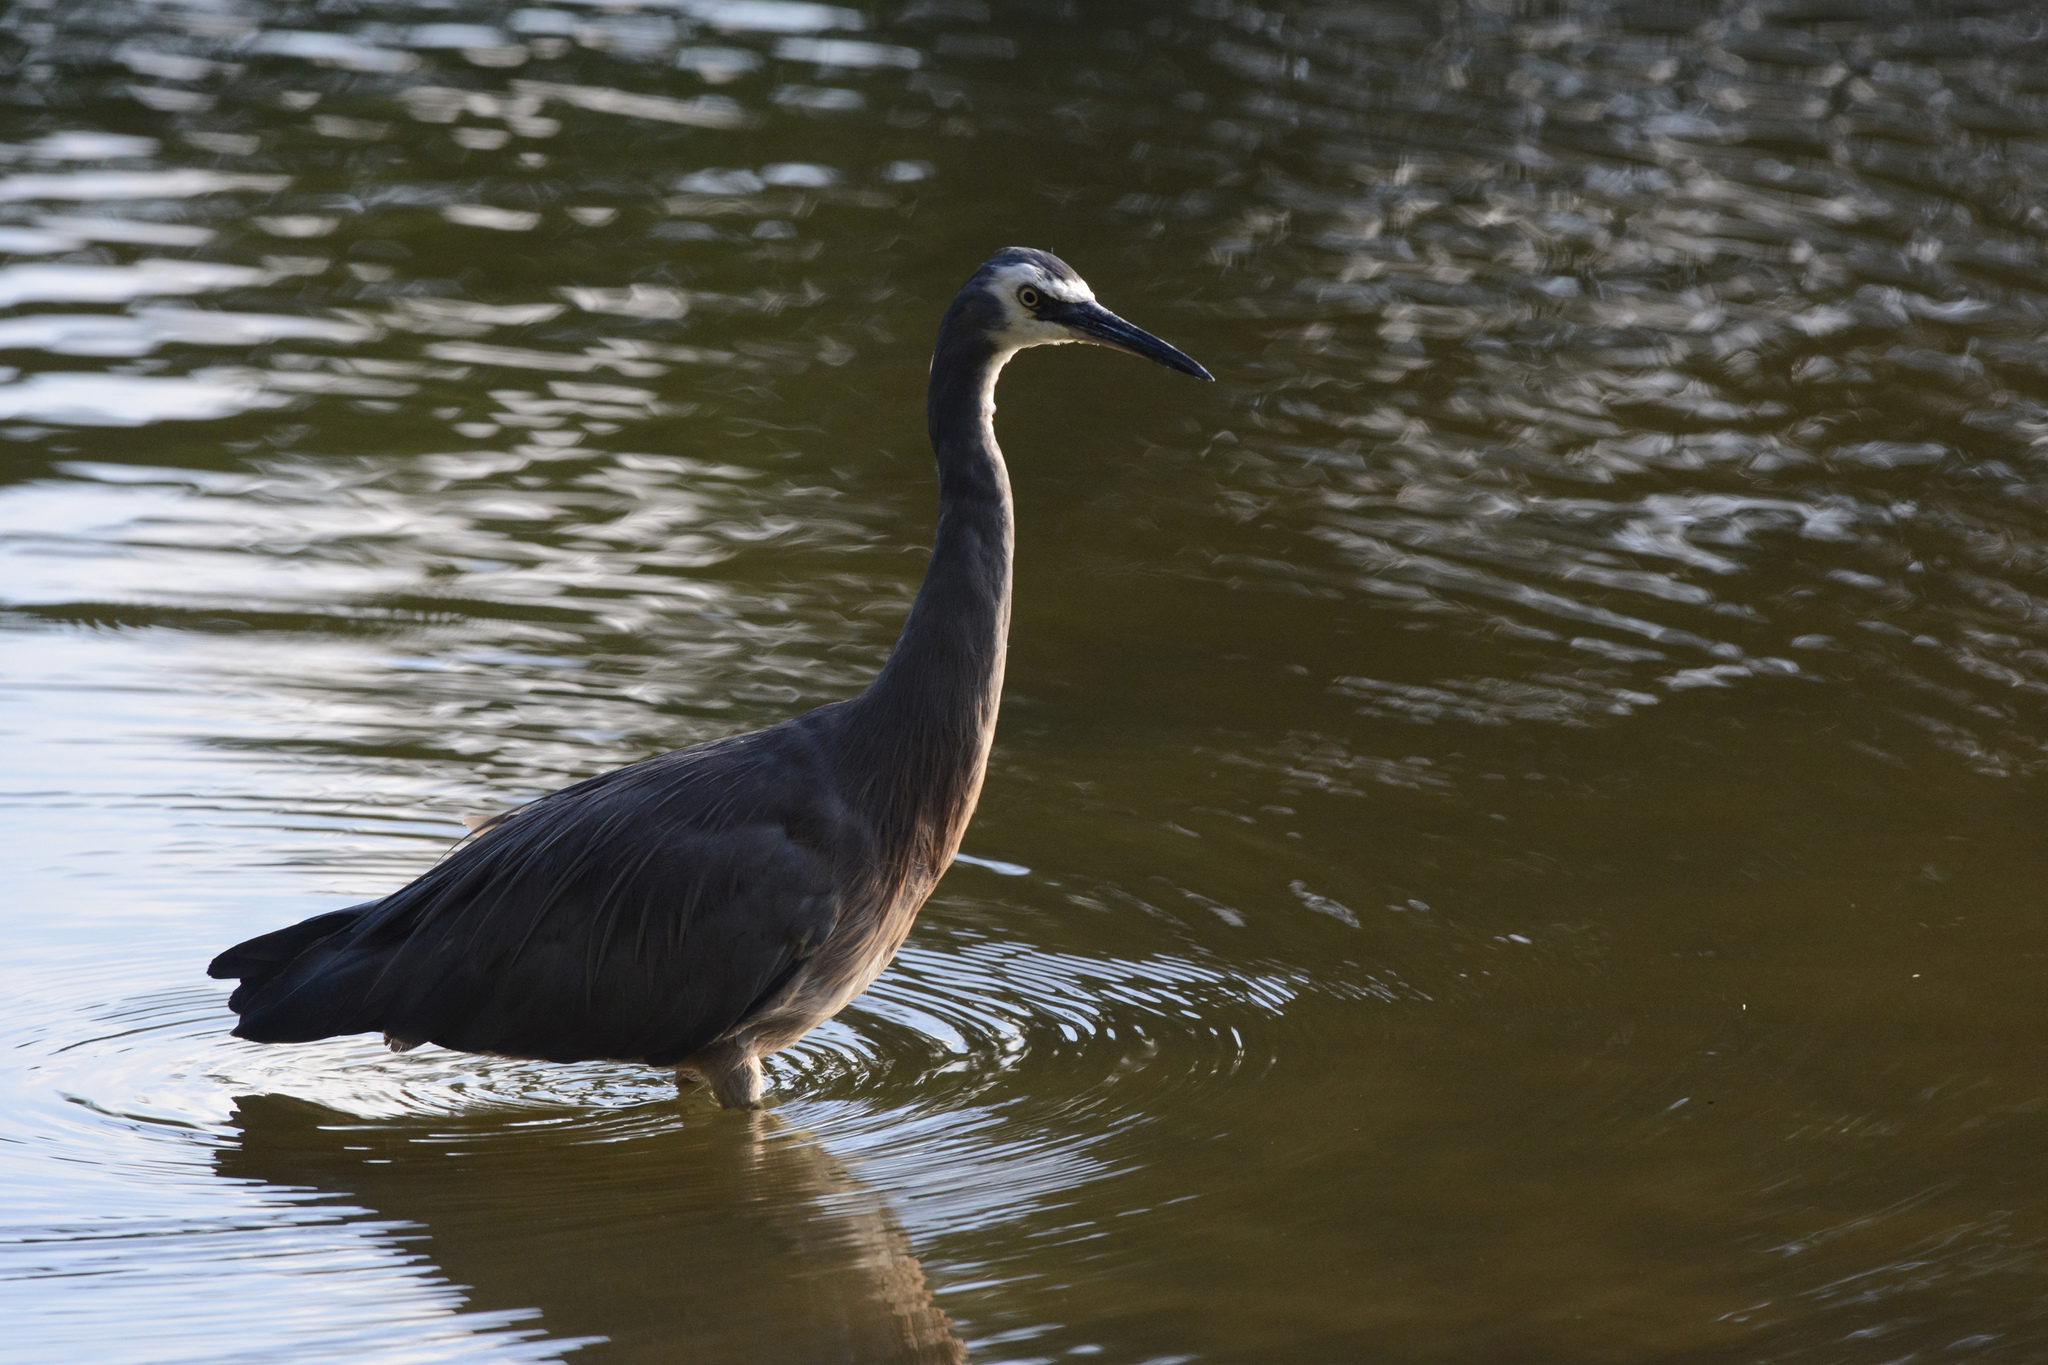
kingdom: Animalia
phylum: Chordata
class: Aves
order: Pelecaniformes
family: Ardeidae
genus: Egretta
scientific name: Egretta novaehollandiae
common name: White-faced heron
